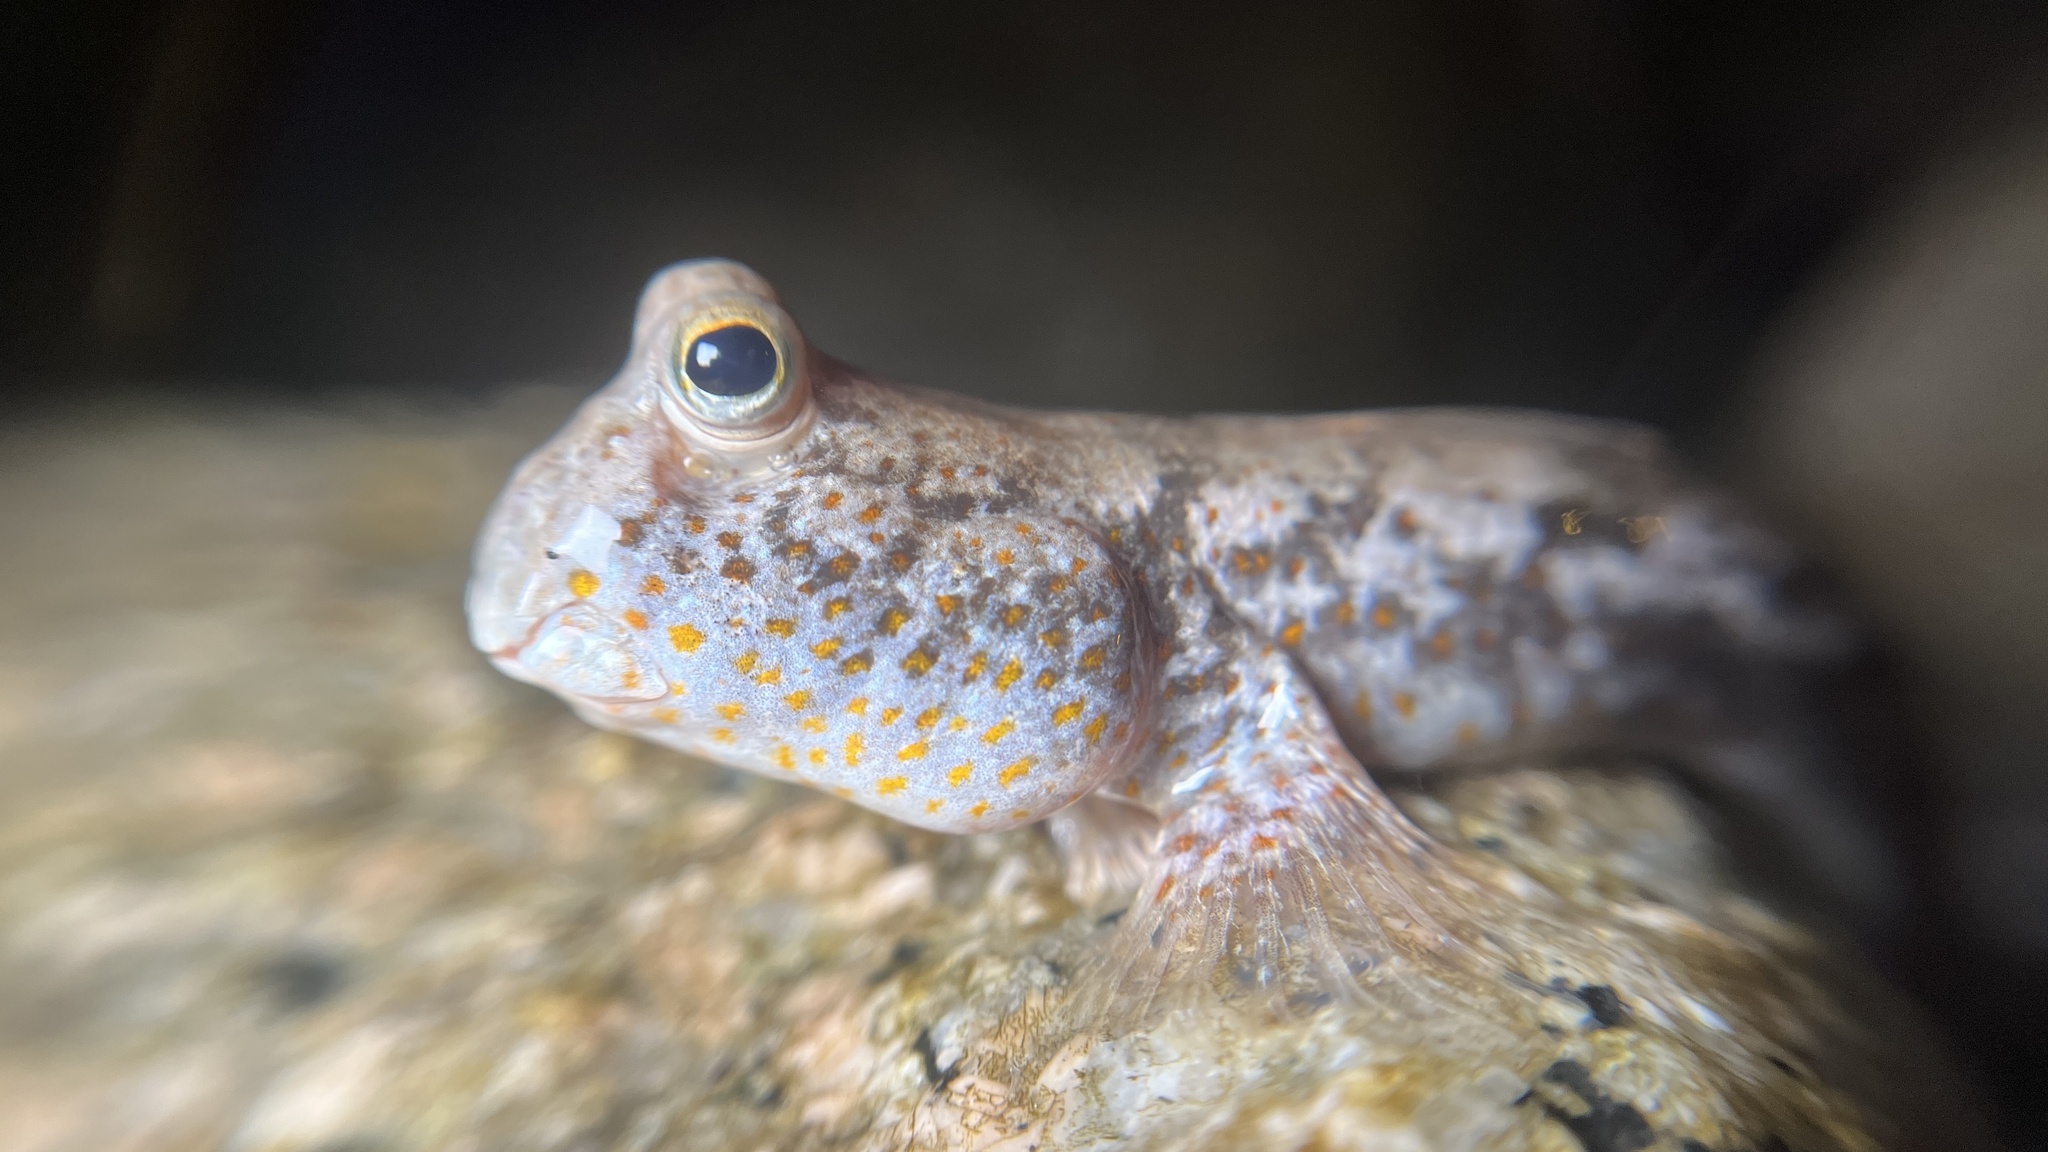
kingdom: Animalia
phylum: Chordata
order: Perciformes
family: Gobiidae
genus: Periophthalmus
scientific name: Periophthalmus chrysospilos
